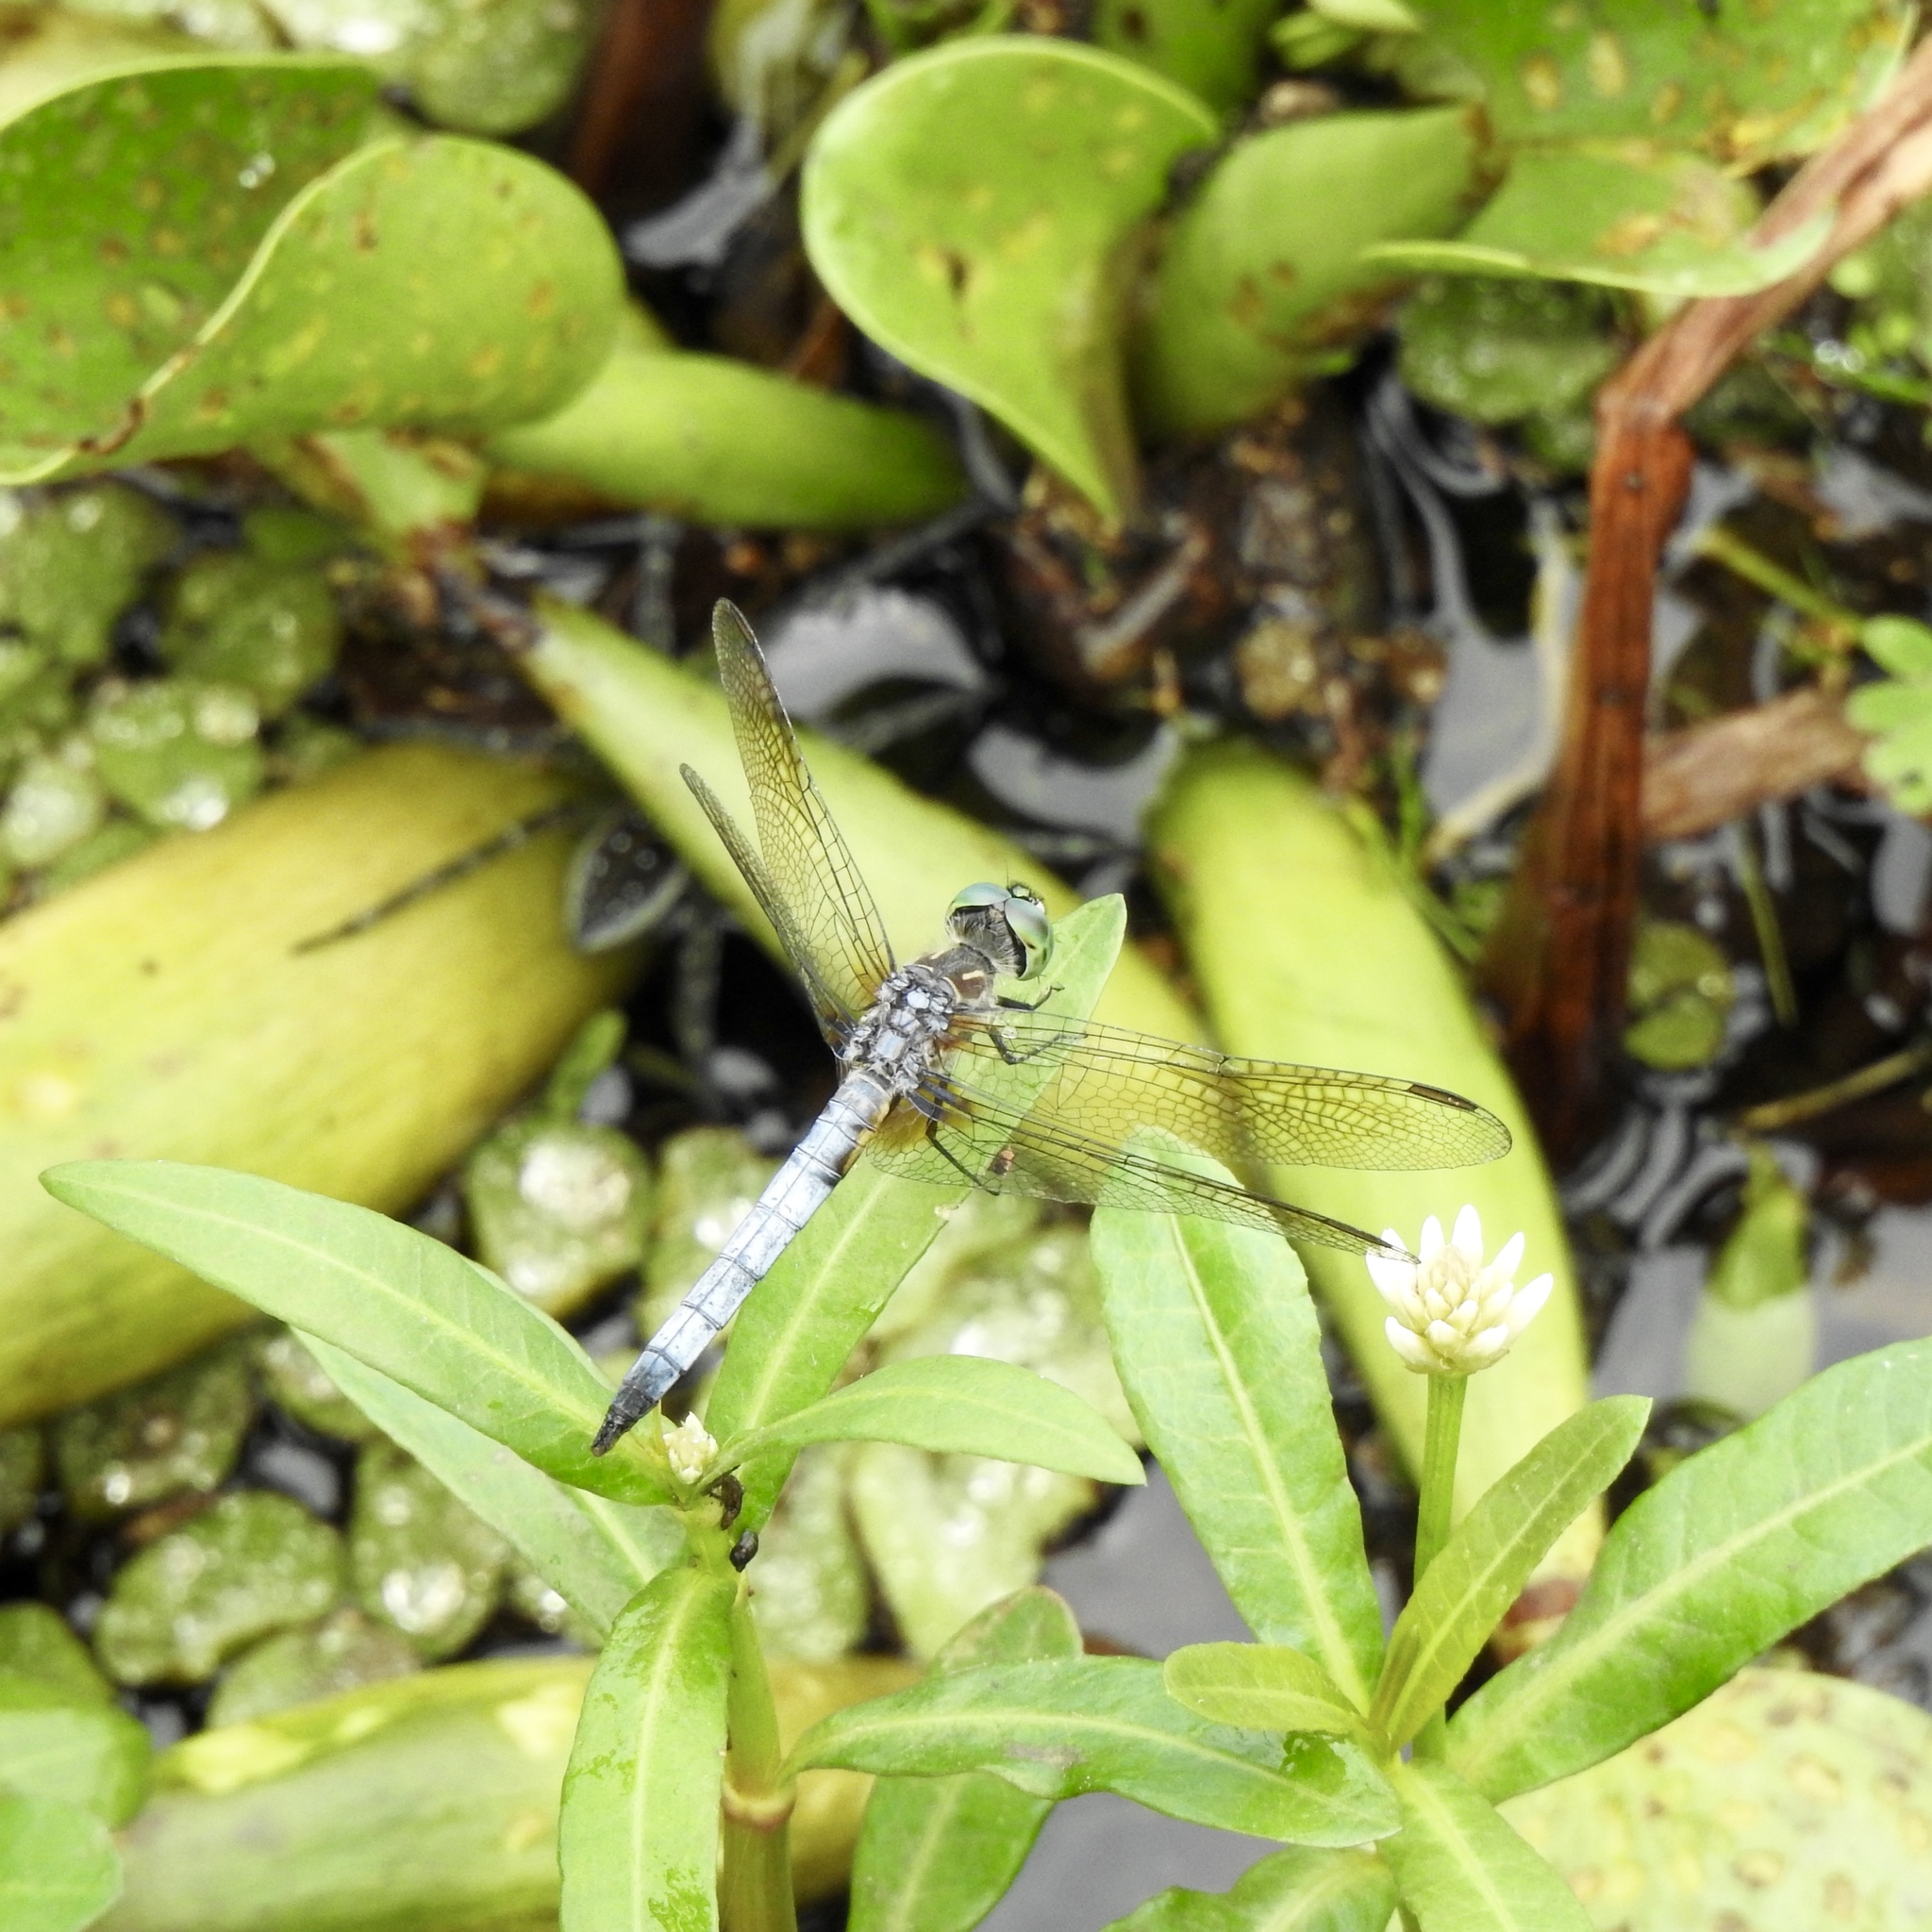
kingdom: Animalia
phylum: Arthropoda
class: Insecta
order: Odonata
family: Libellulidae
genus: Pachydiplax
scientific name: Pachydiplax longipennis
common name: Blue dasher
